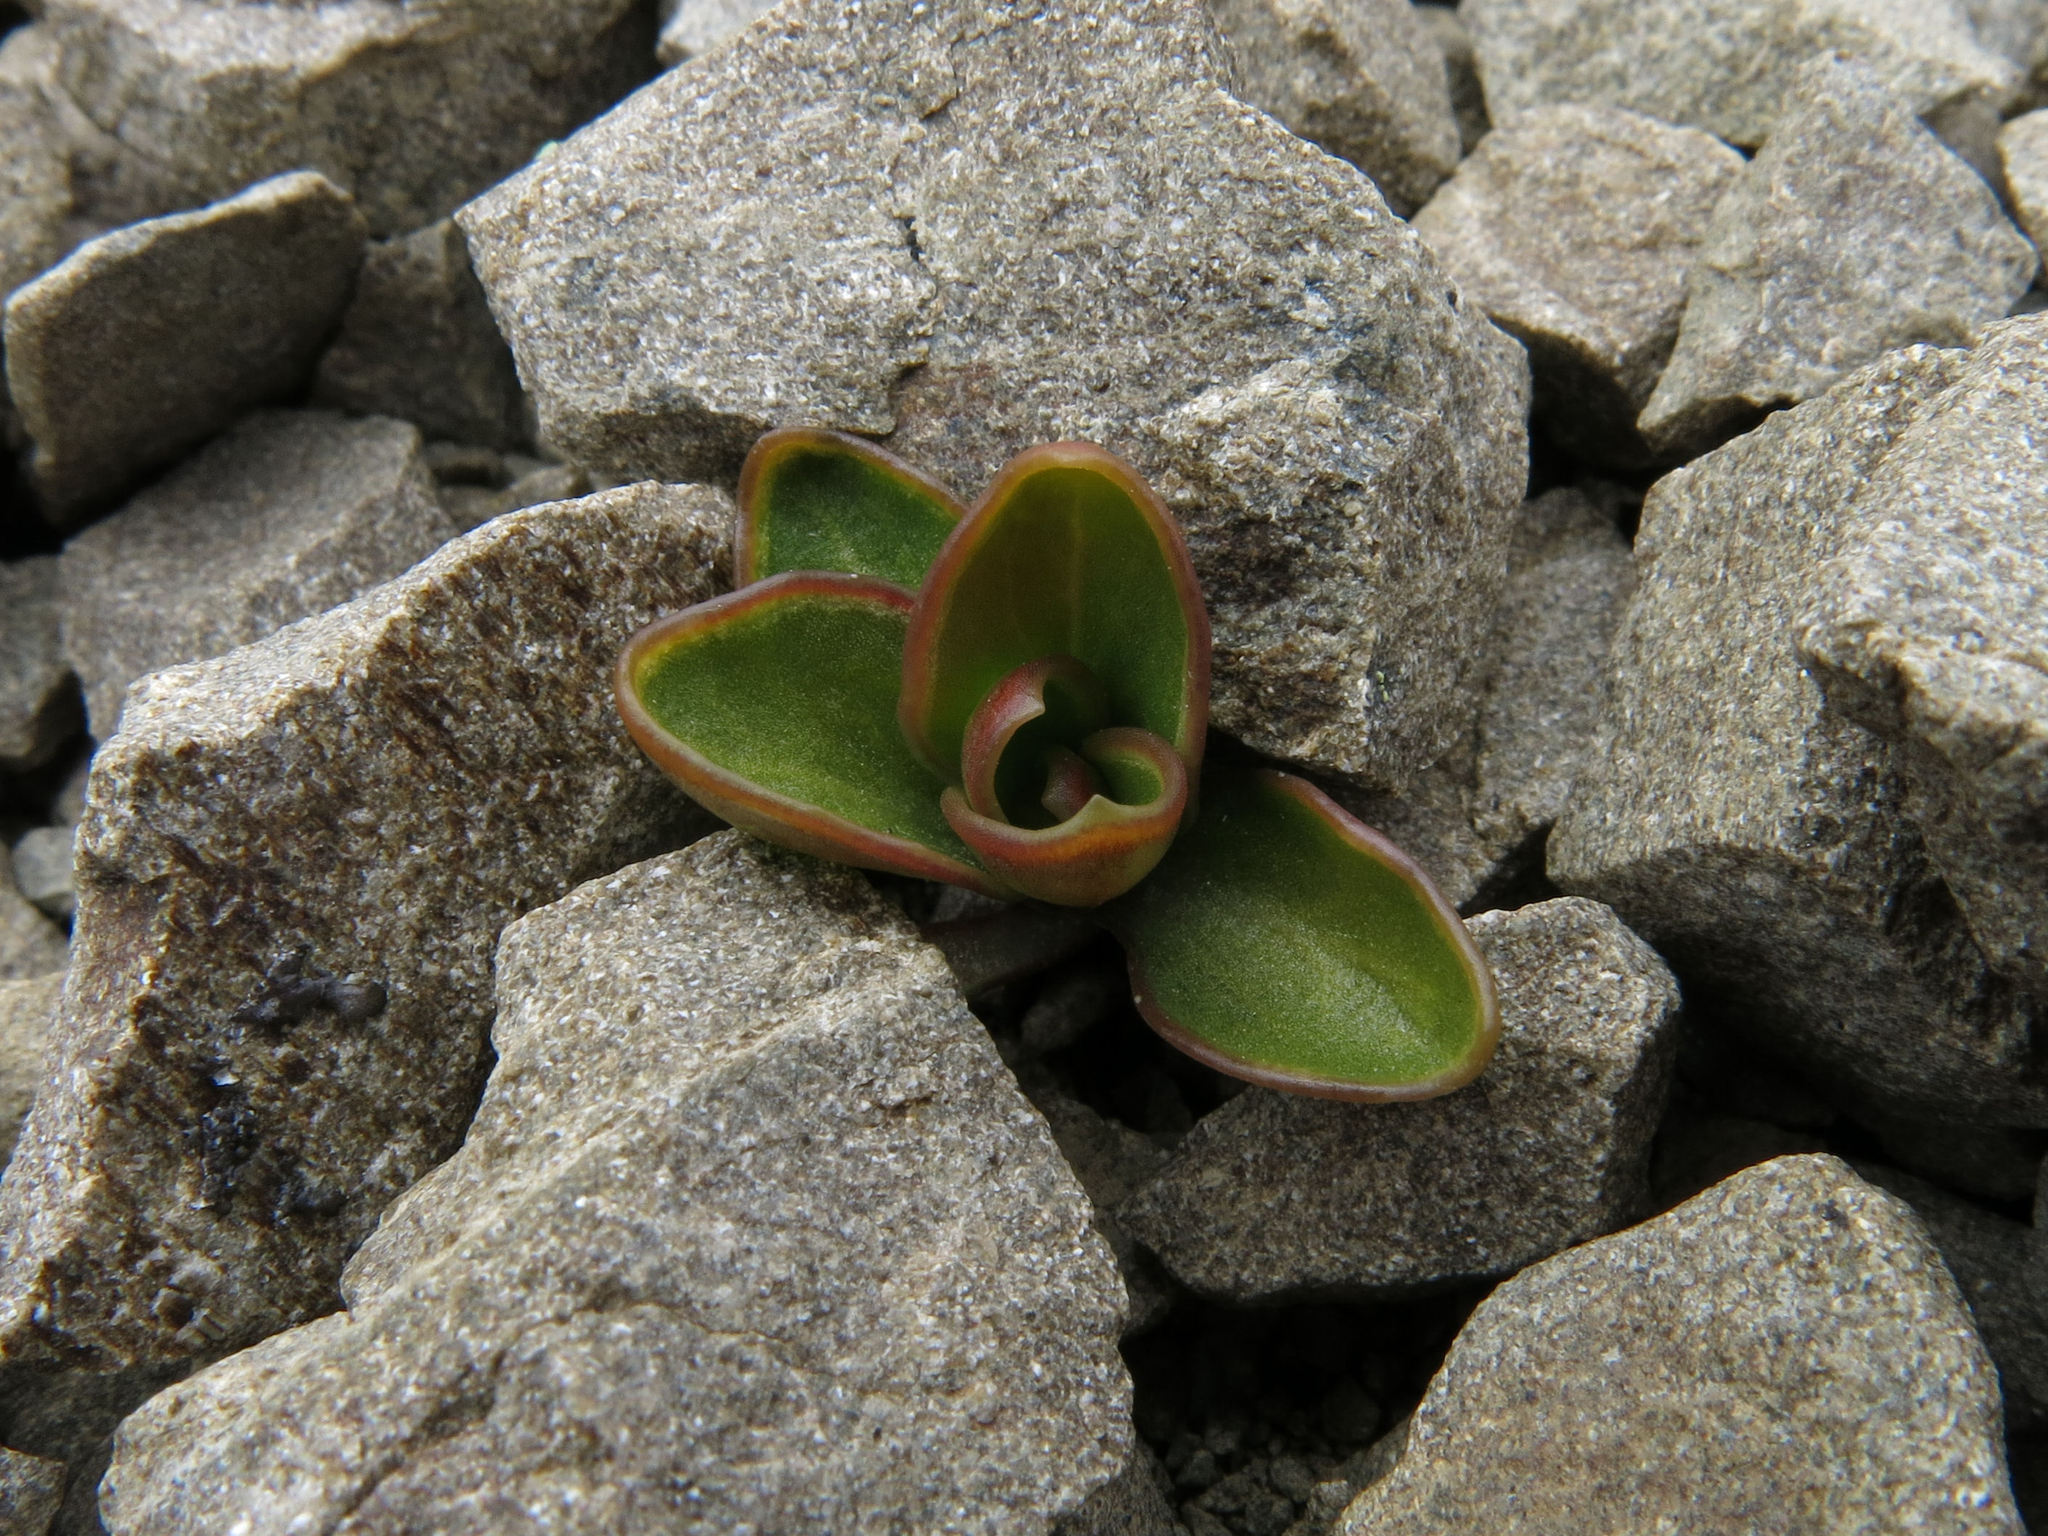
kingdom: Plantae
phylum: Tracheophyta
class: Magnoliopsida
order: Asterales
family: Campanulaceae
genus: Wahlenbergia
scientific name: Wahlenbergia cartilaginea
